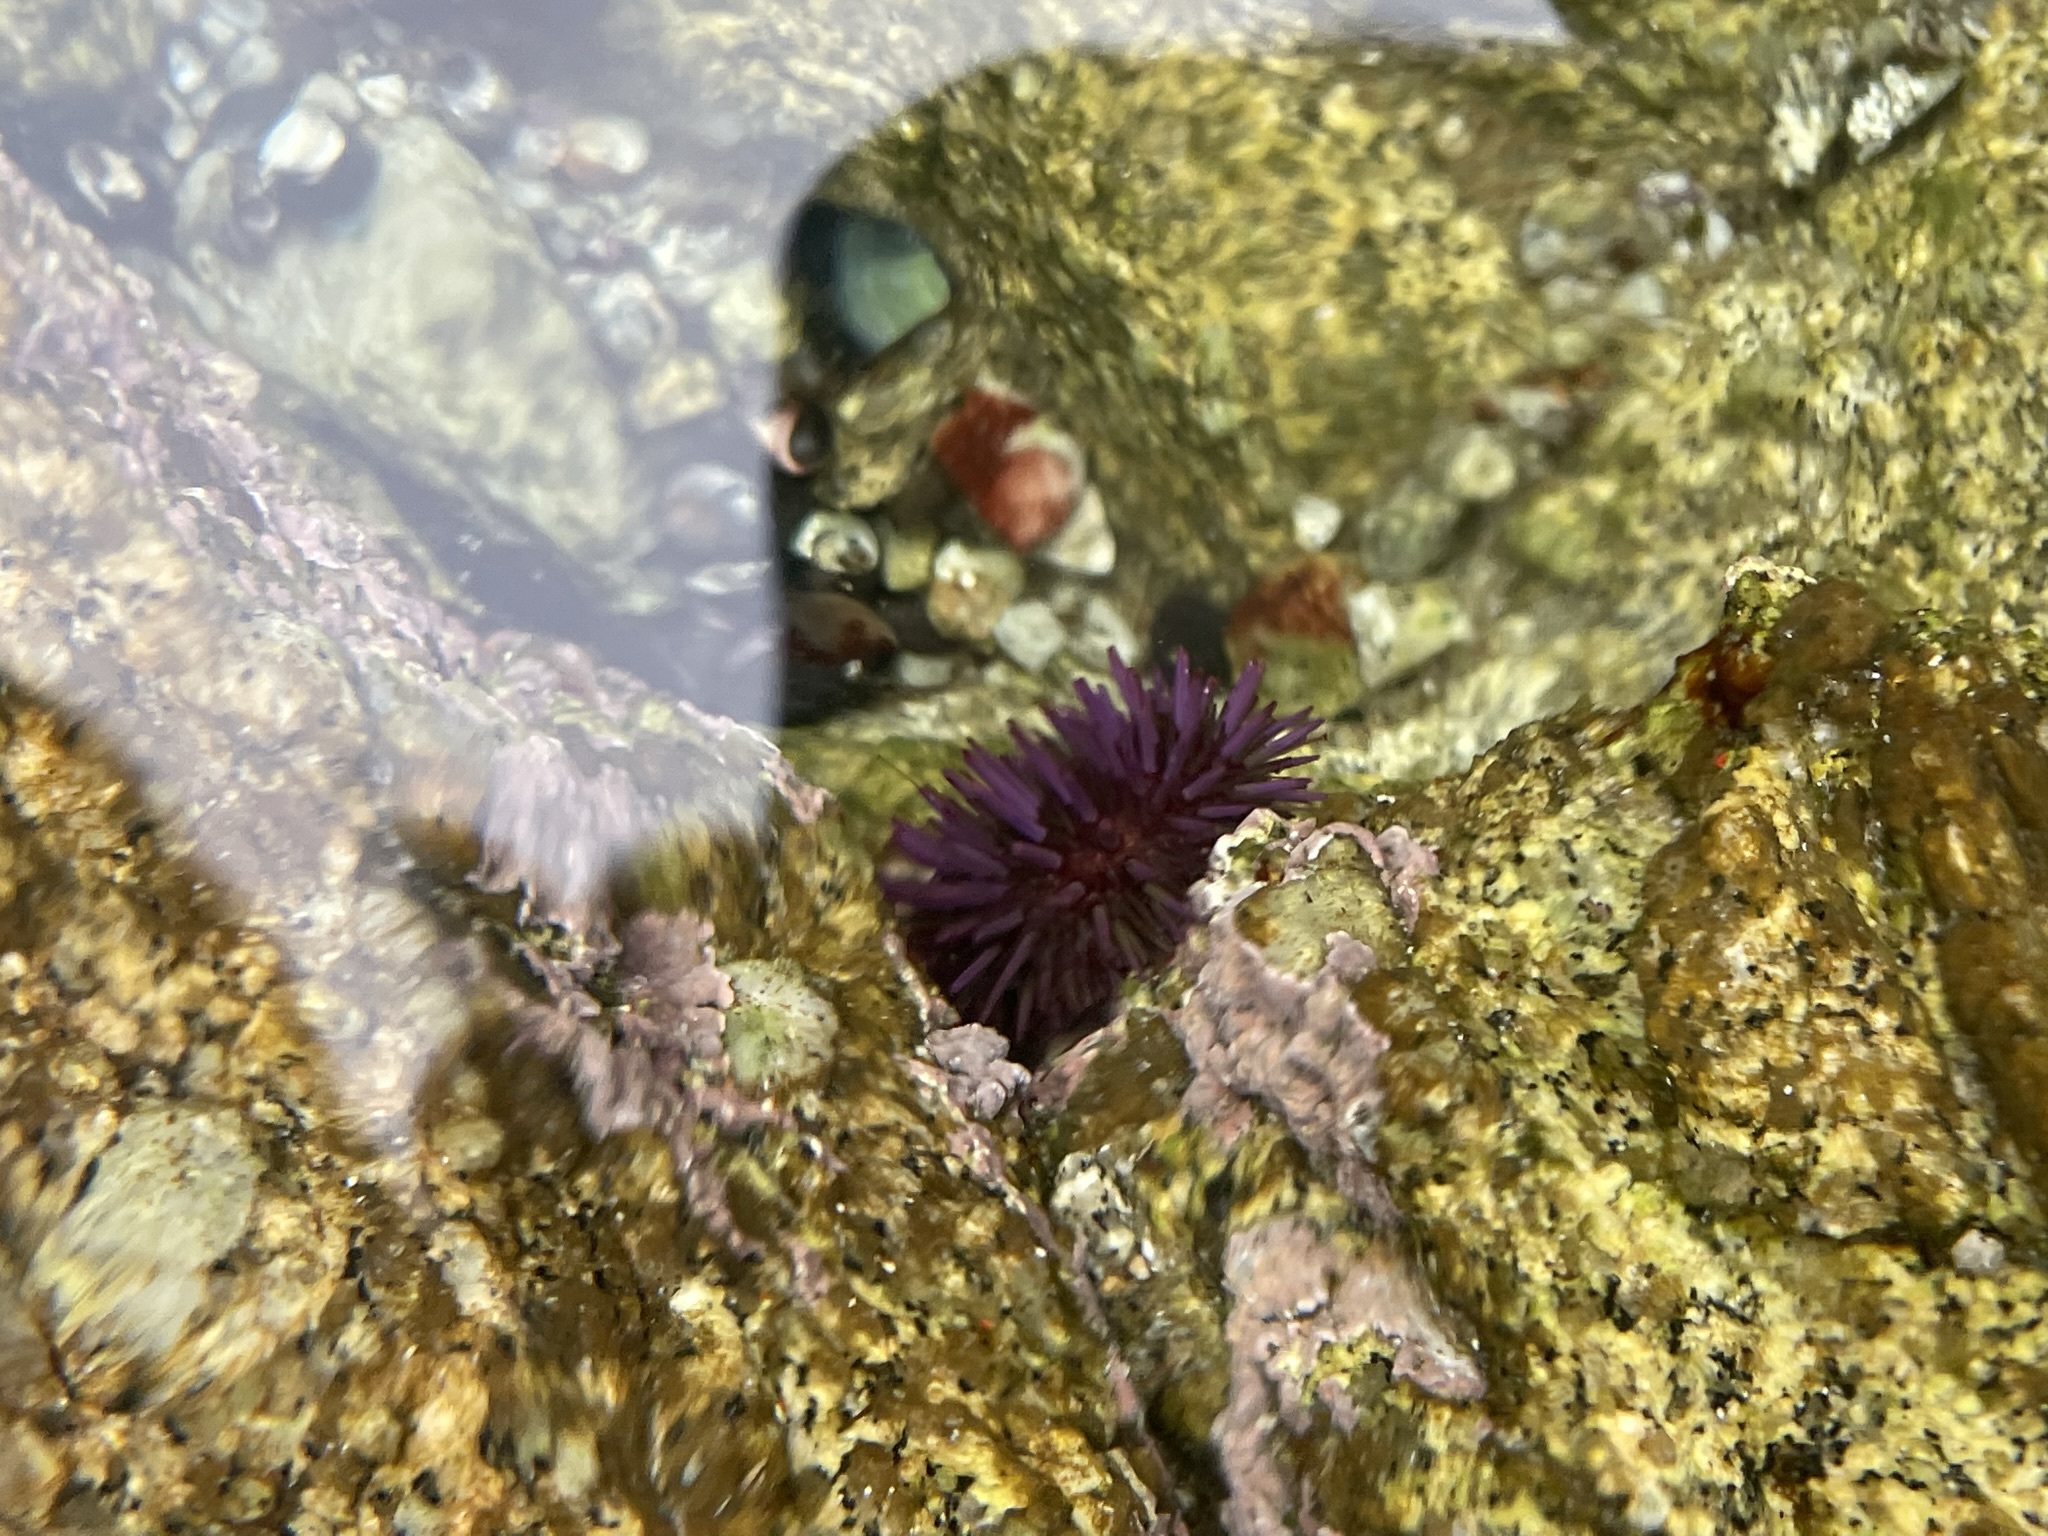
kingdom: Animalia
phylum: Echinodermata
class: Echinoidea
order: Camarodonta
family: Strongylocentrotidae
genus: Strongylocentrotus
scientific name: Strongylocentrotus purpuratus
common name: Purple sea urchin
